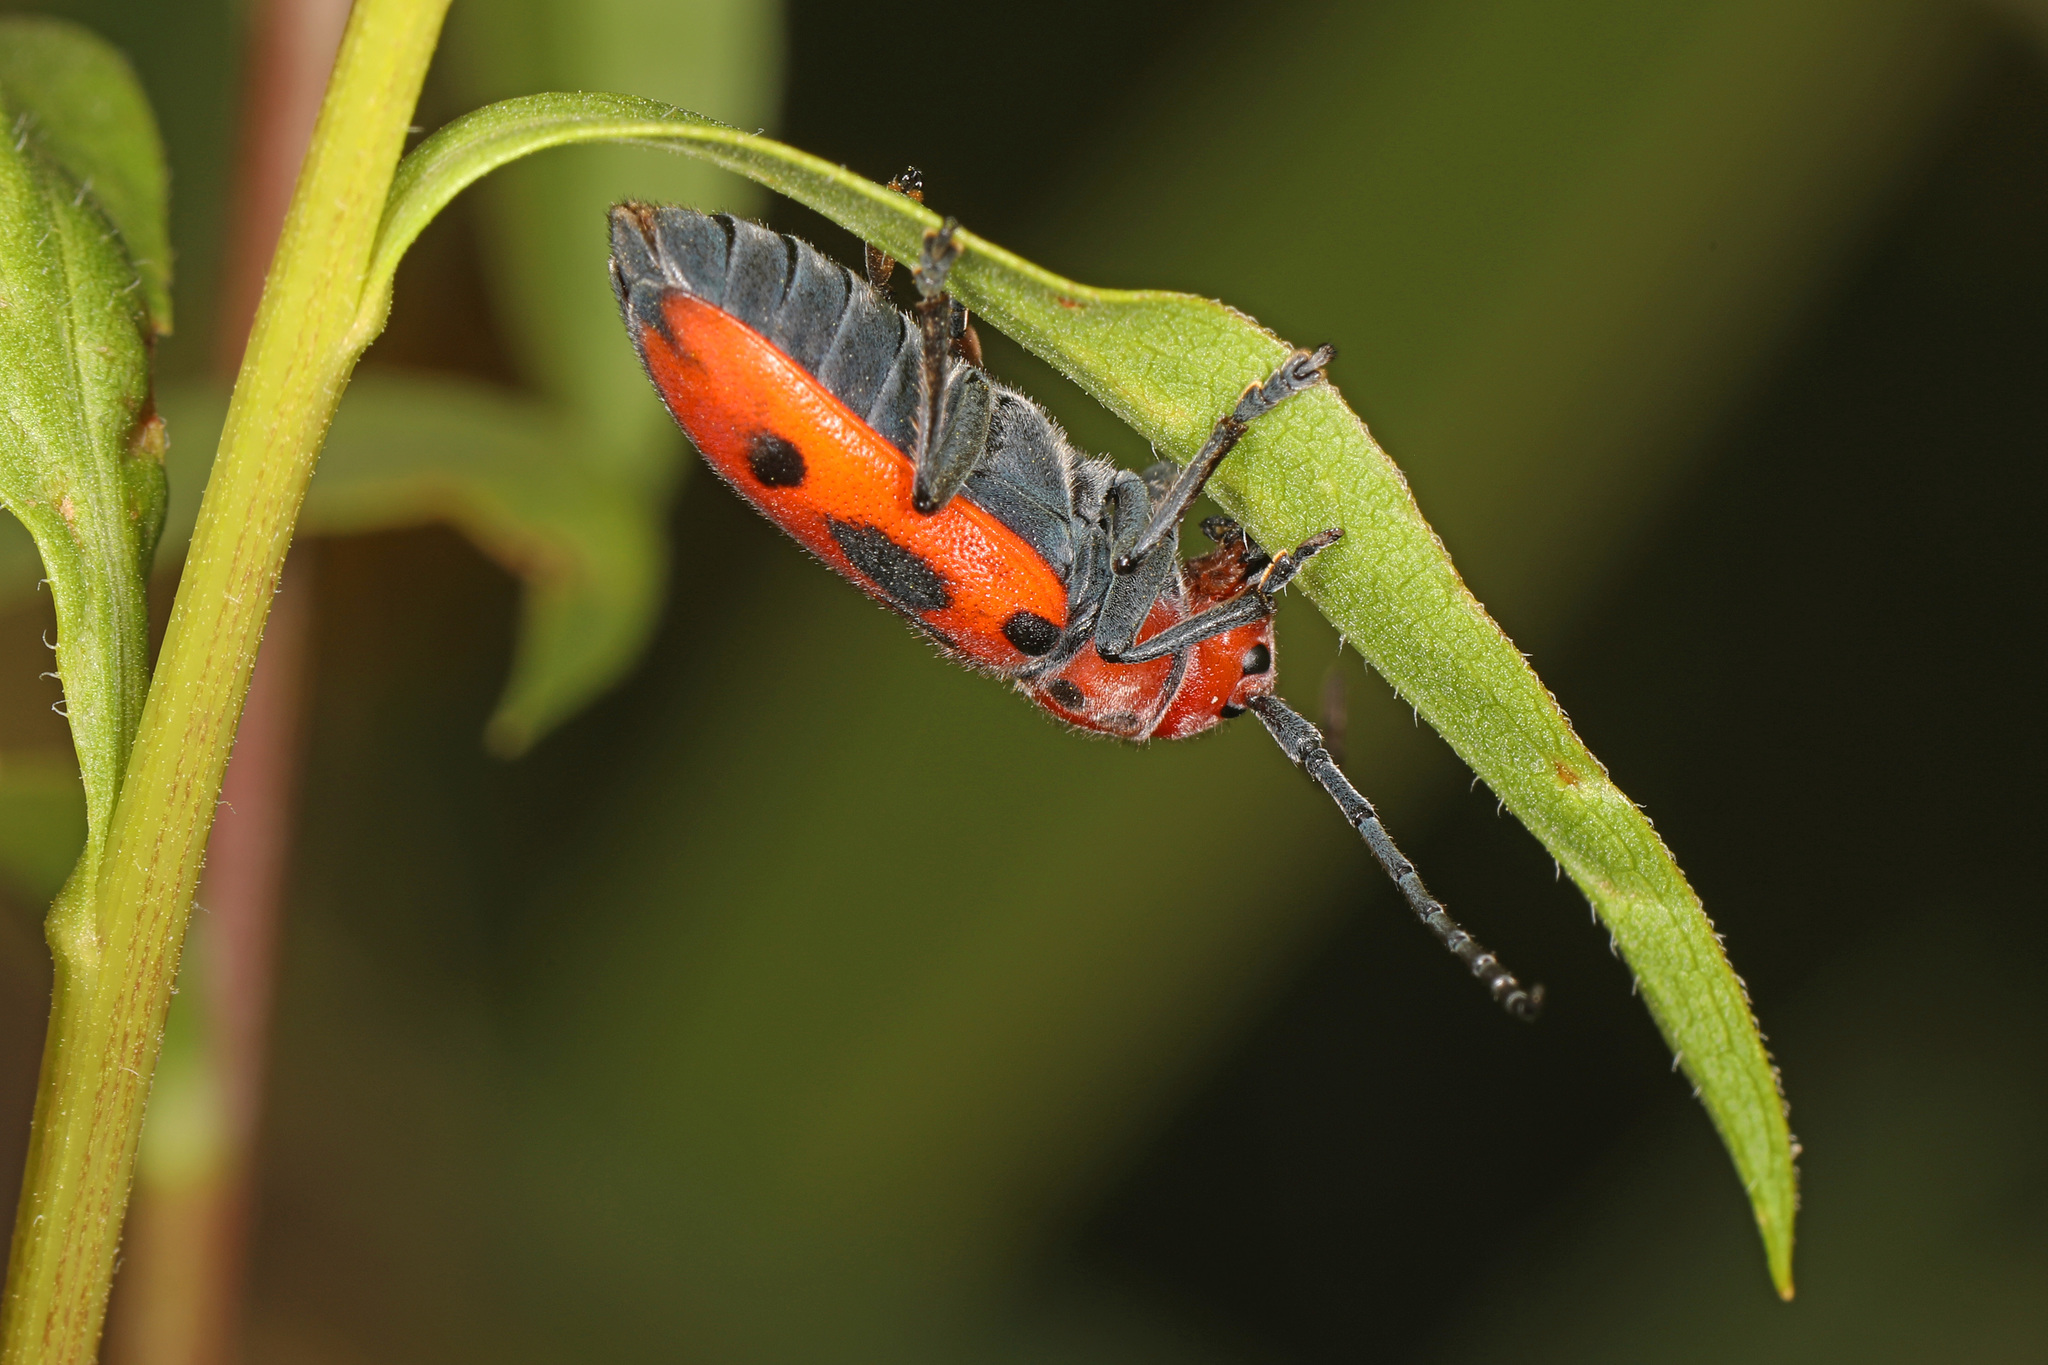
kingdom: Animalia
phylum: Arthropoda
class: Insecta
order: Coleoptera
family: Cerambycidae
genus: Tetraopes
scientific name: Tetraopes tetrophthalmus
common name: Red milkweed beetle
